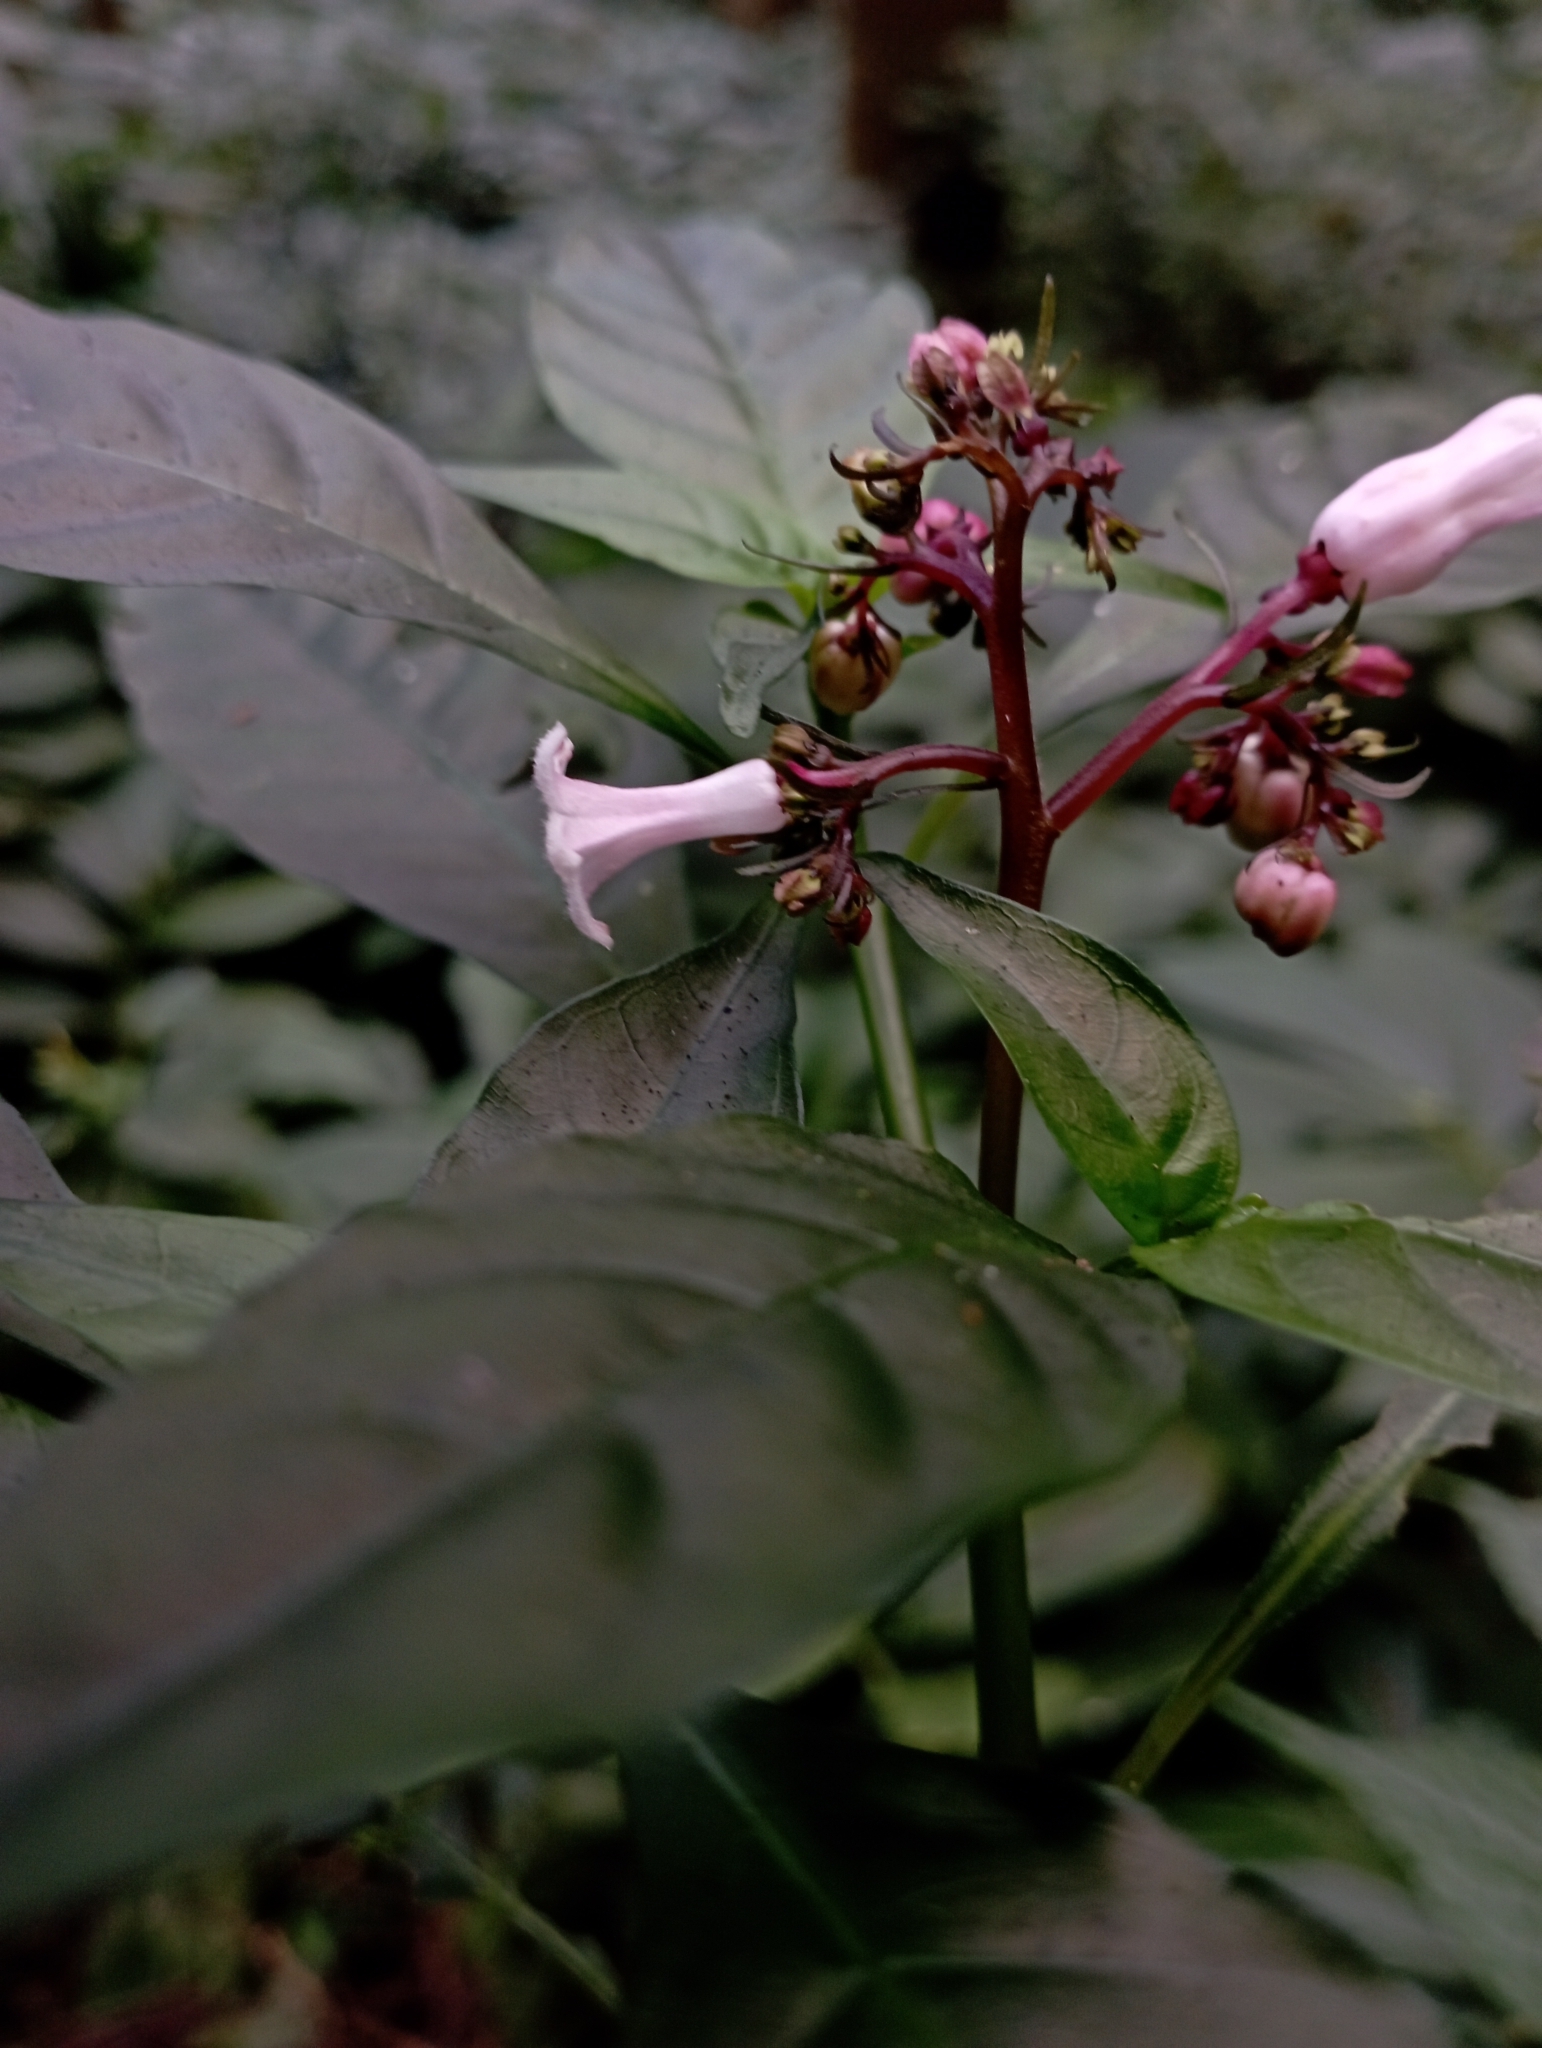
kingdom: Plantae
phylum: Tracheophyta
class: Magnoliopsida
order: Gentianales
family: Rubiaceae
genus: Ophiorrhiza
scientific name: Ophiorrhiza japonica
